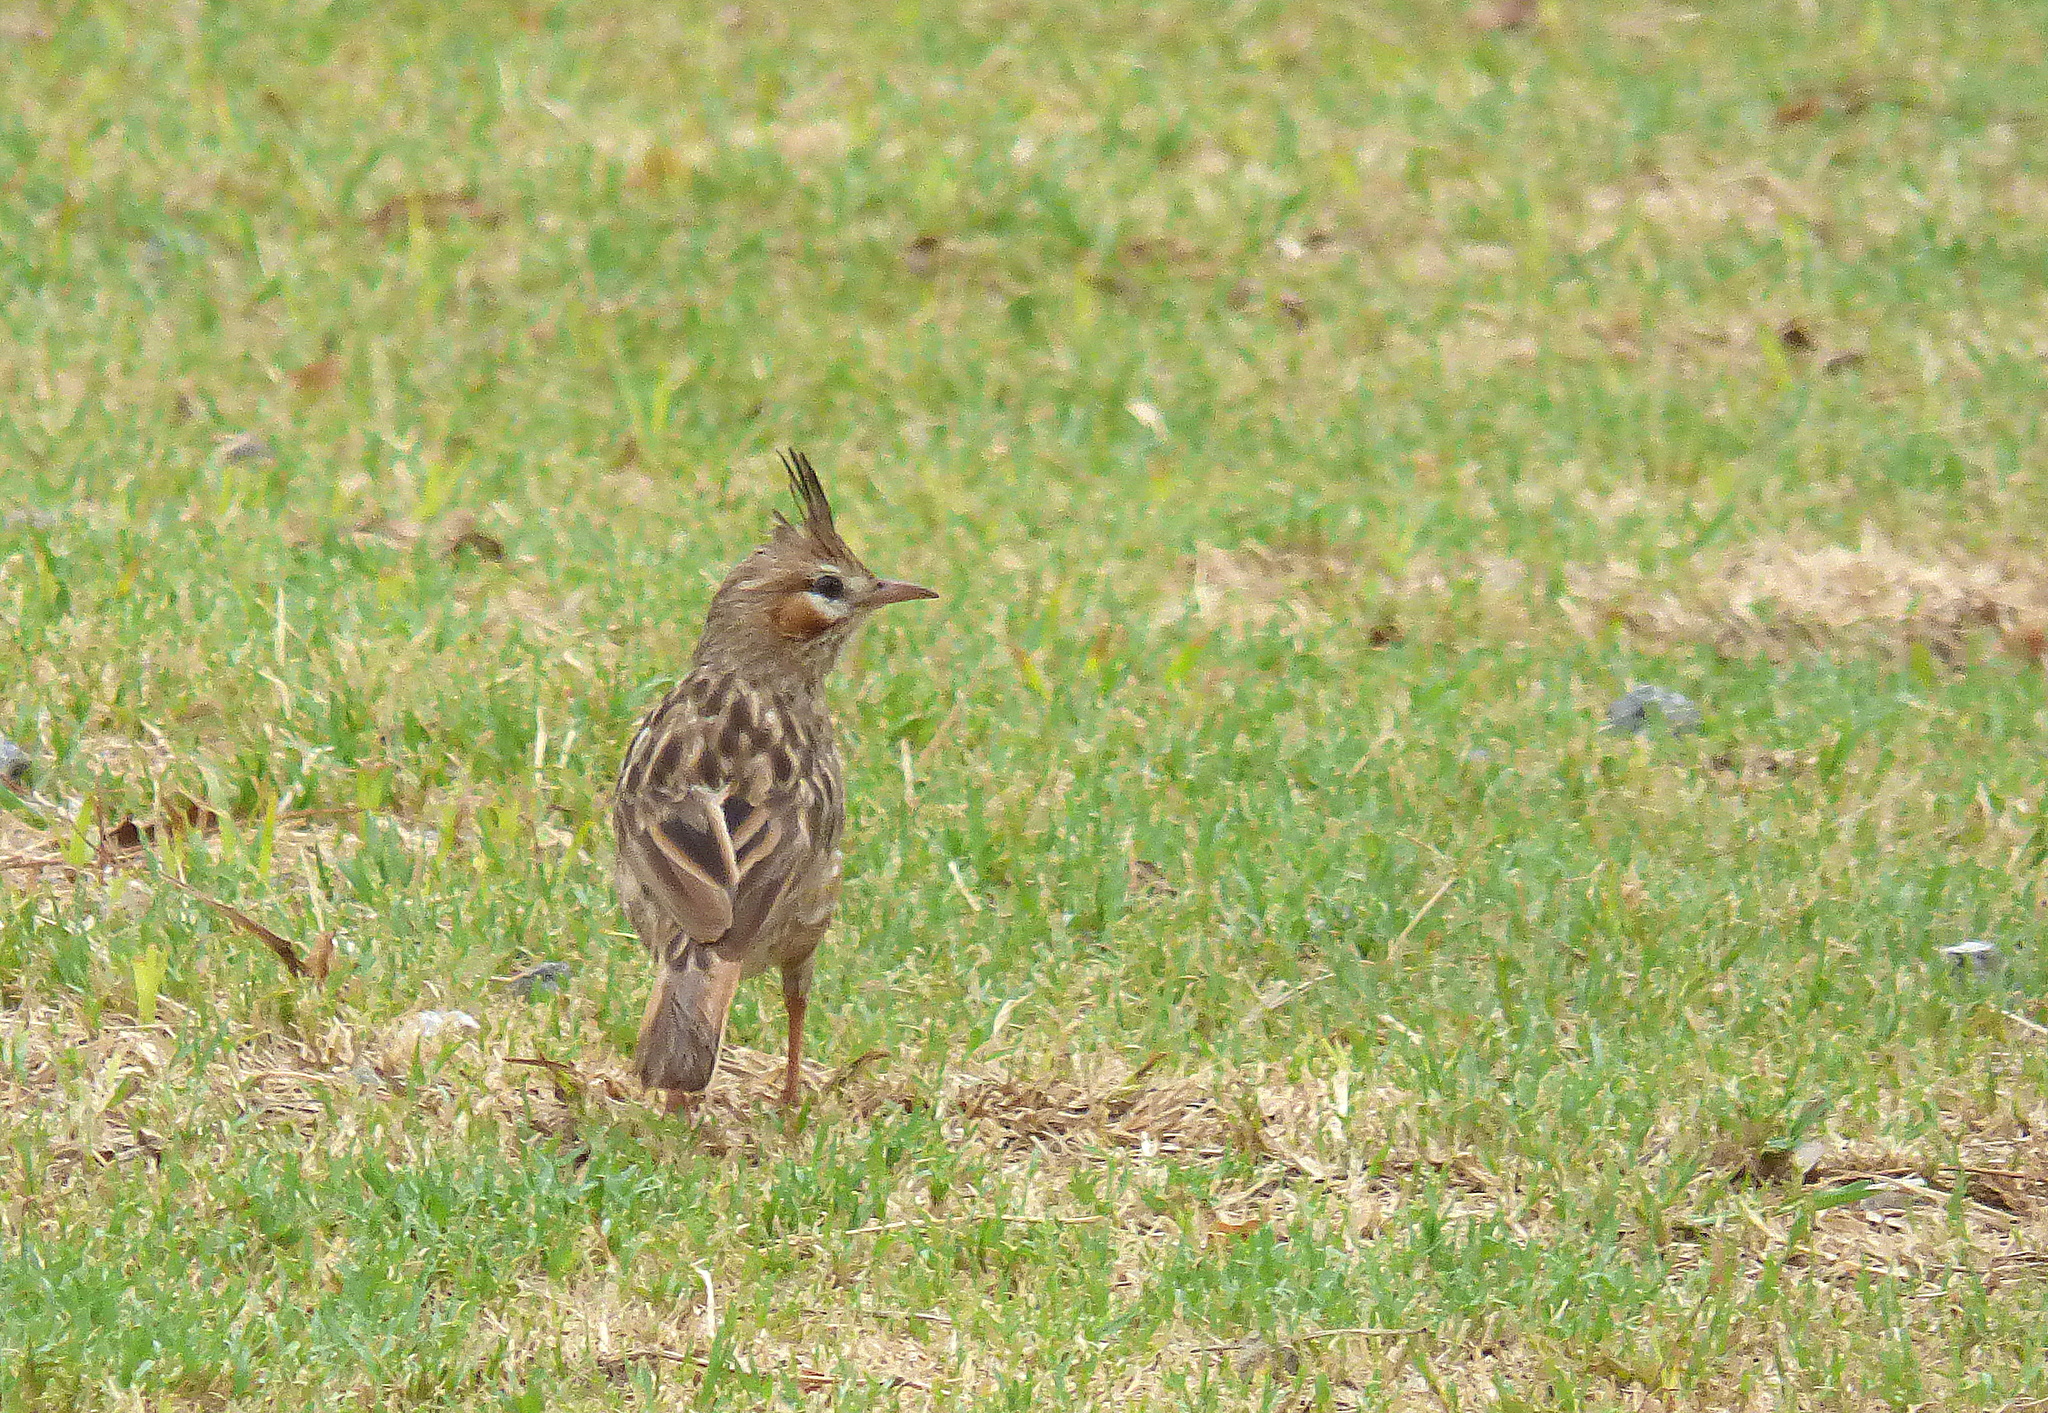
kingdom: Animalia
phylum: Chordata
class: Aves
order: Passeriformes
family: Furnariidae
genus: Coryphistera
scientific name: Coryphistera alaudina
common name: Lark-like brushrunner
